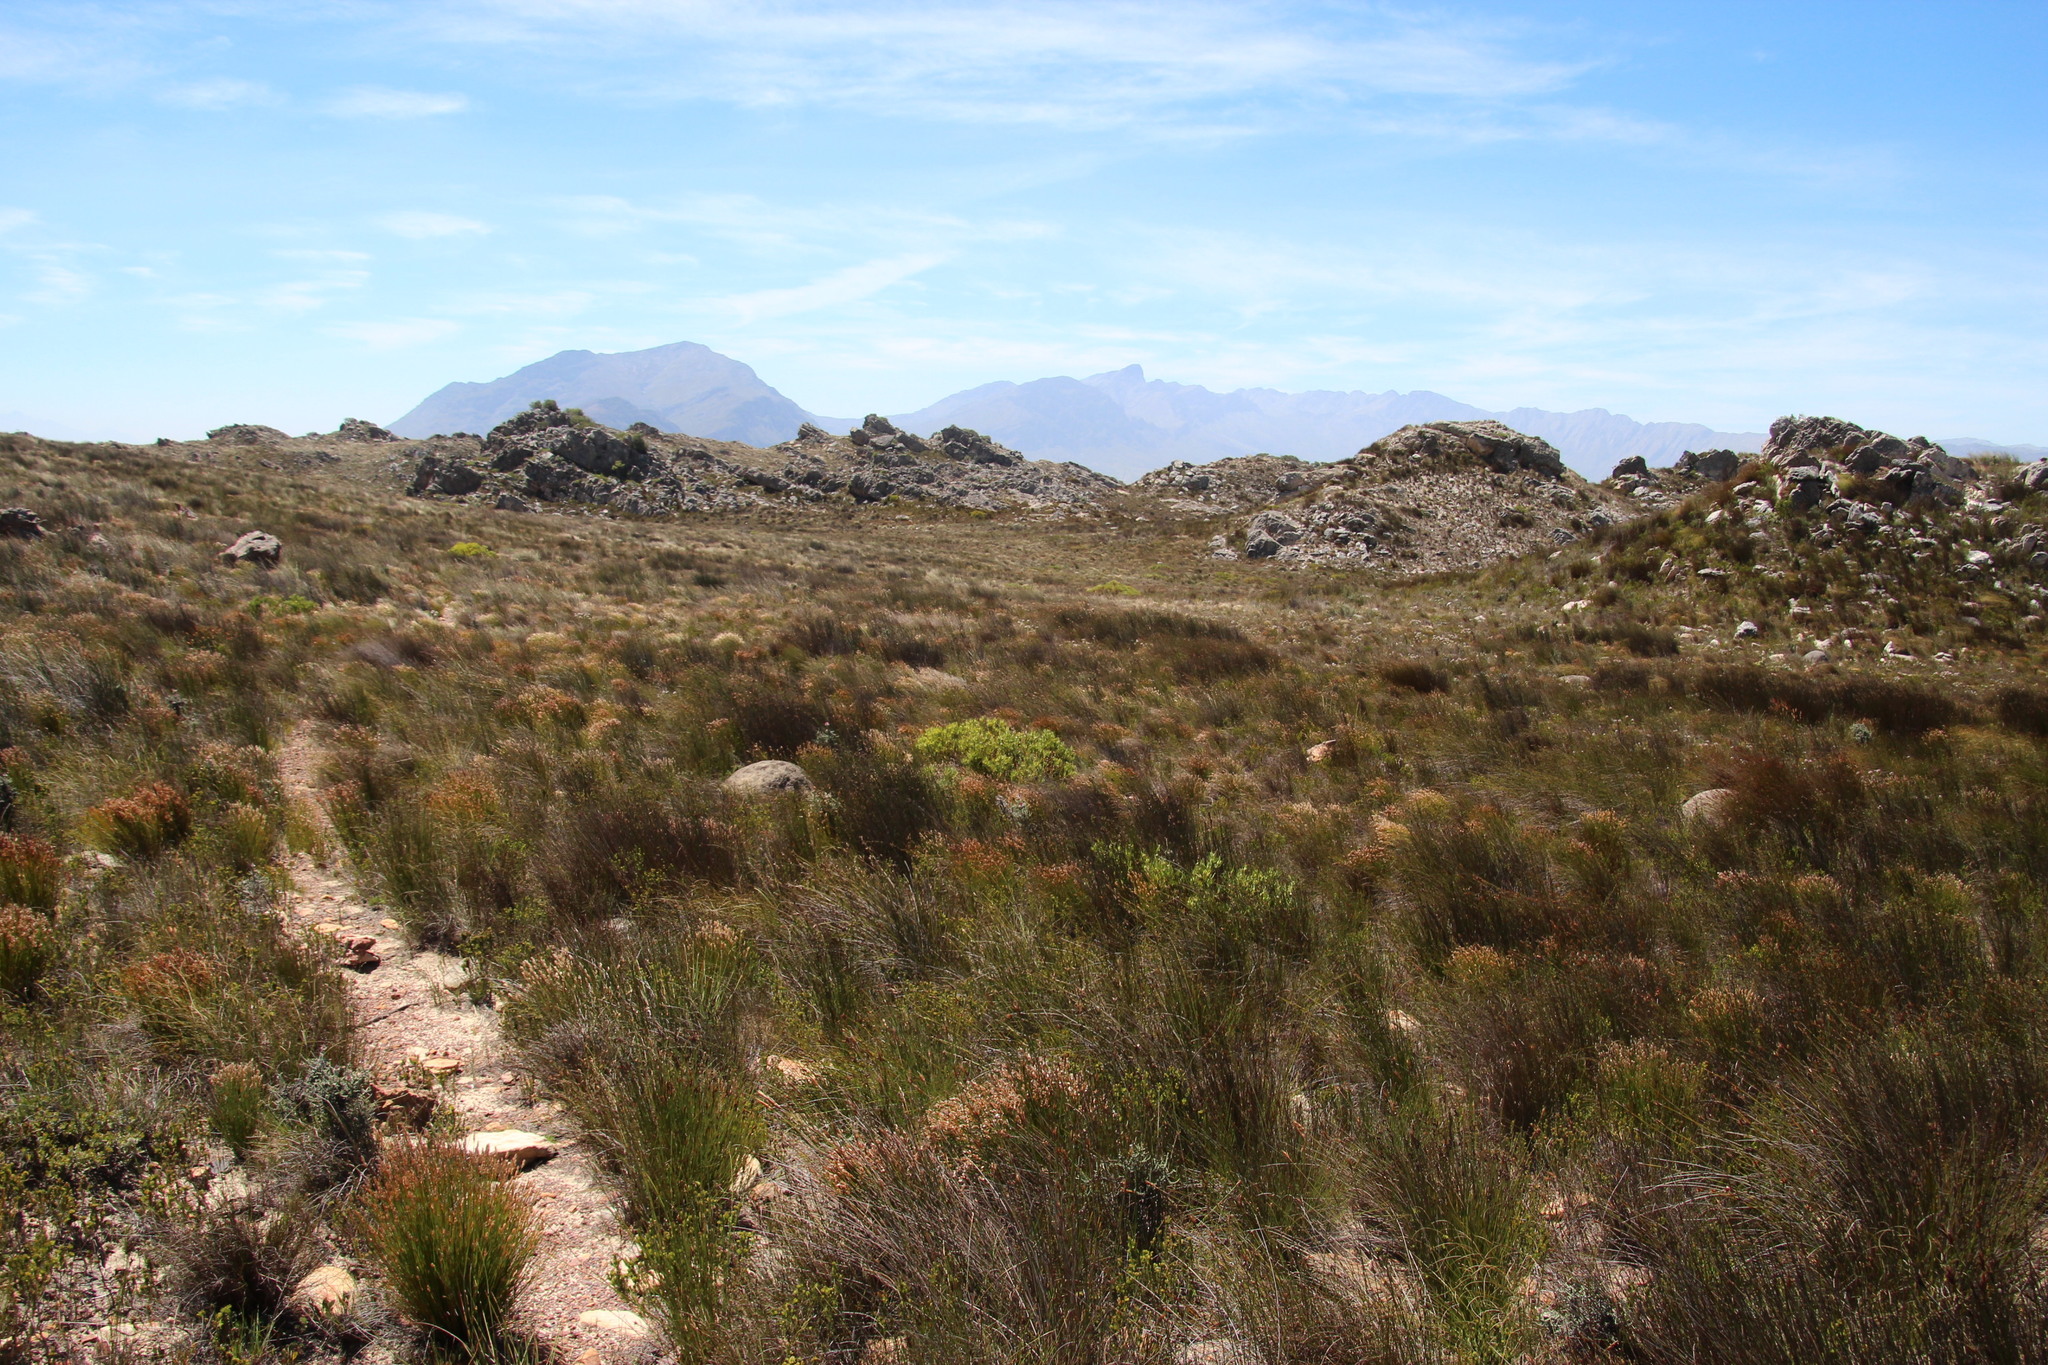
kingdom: Plantae
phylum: Tracheophyta
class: Magnoliopsida
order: Proteales
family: Proteaceae
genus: Leucadendron
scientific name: Leucadendron salignum
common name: Common sunshine conebush
